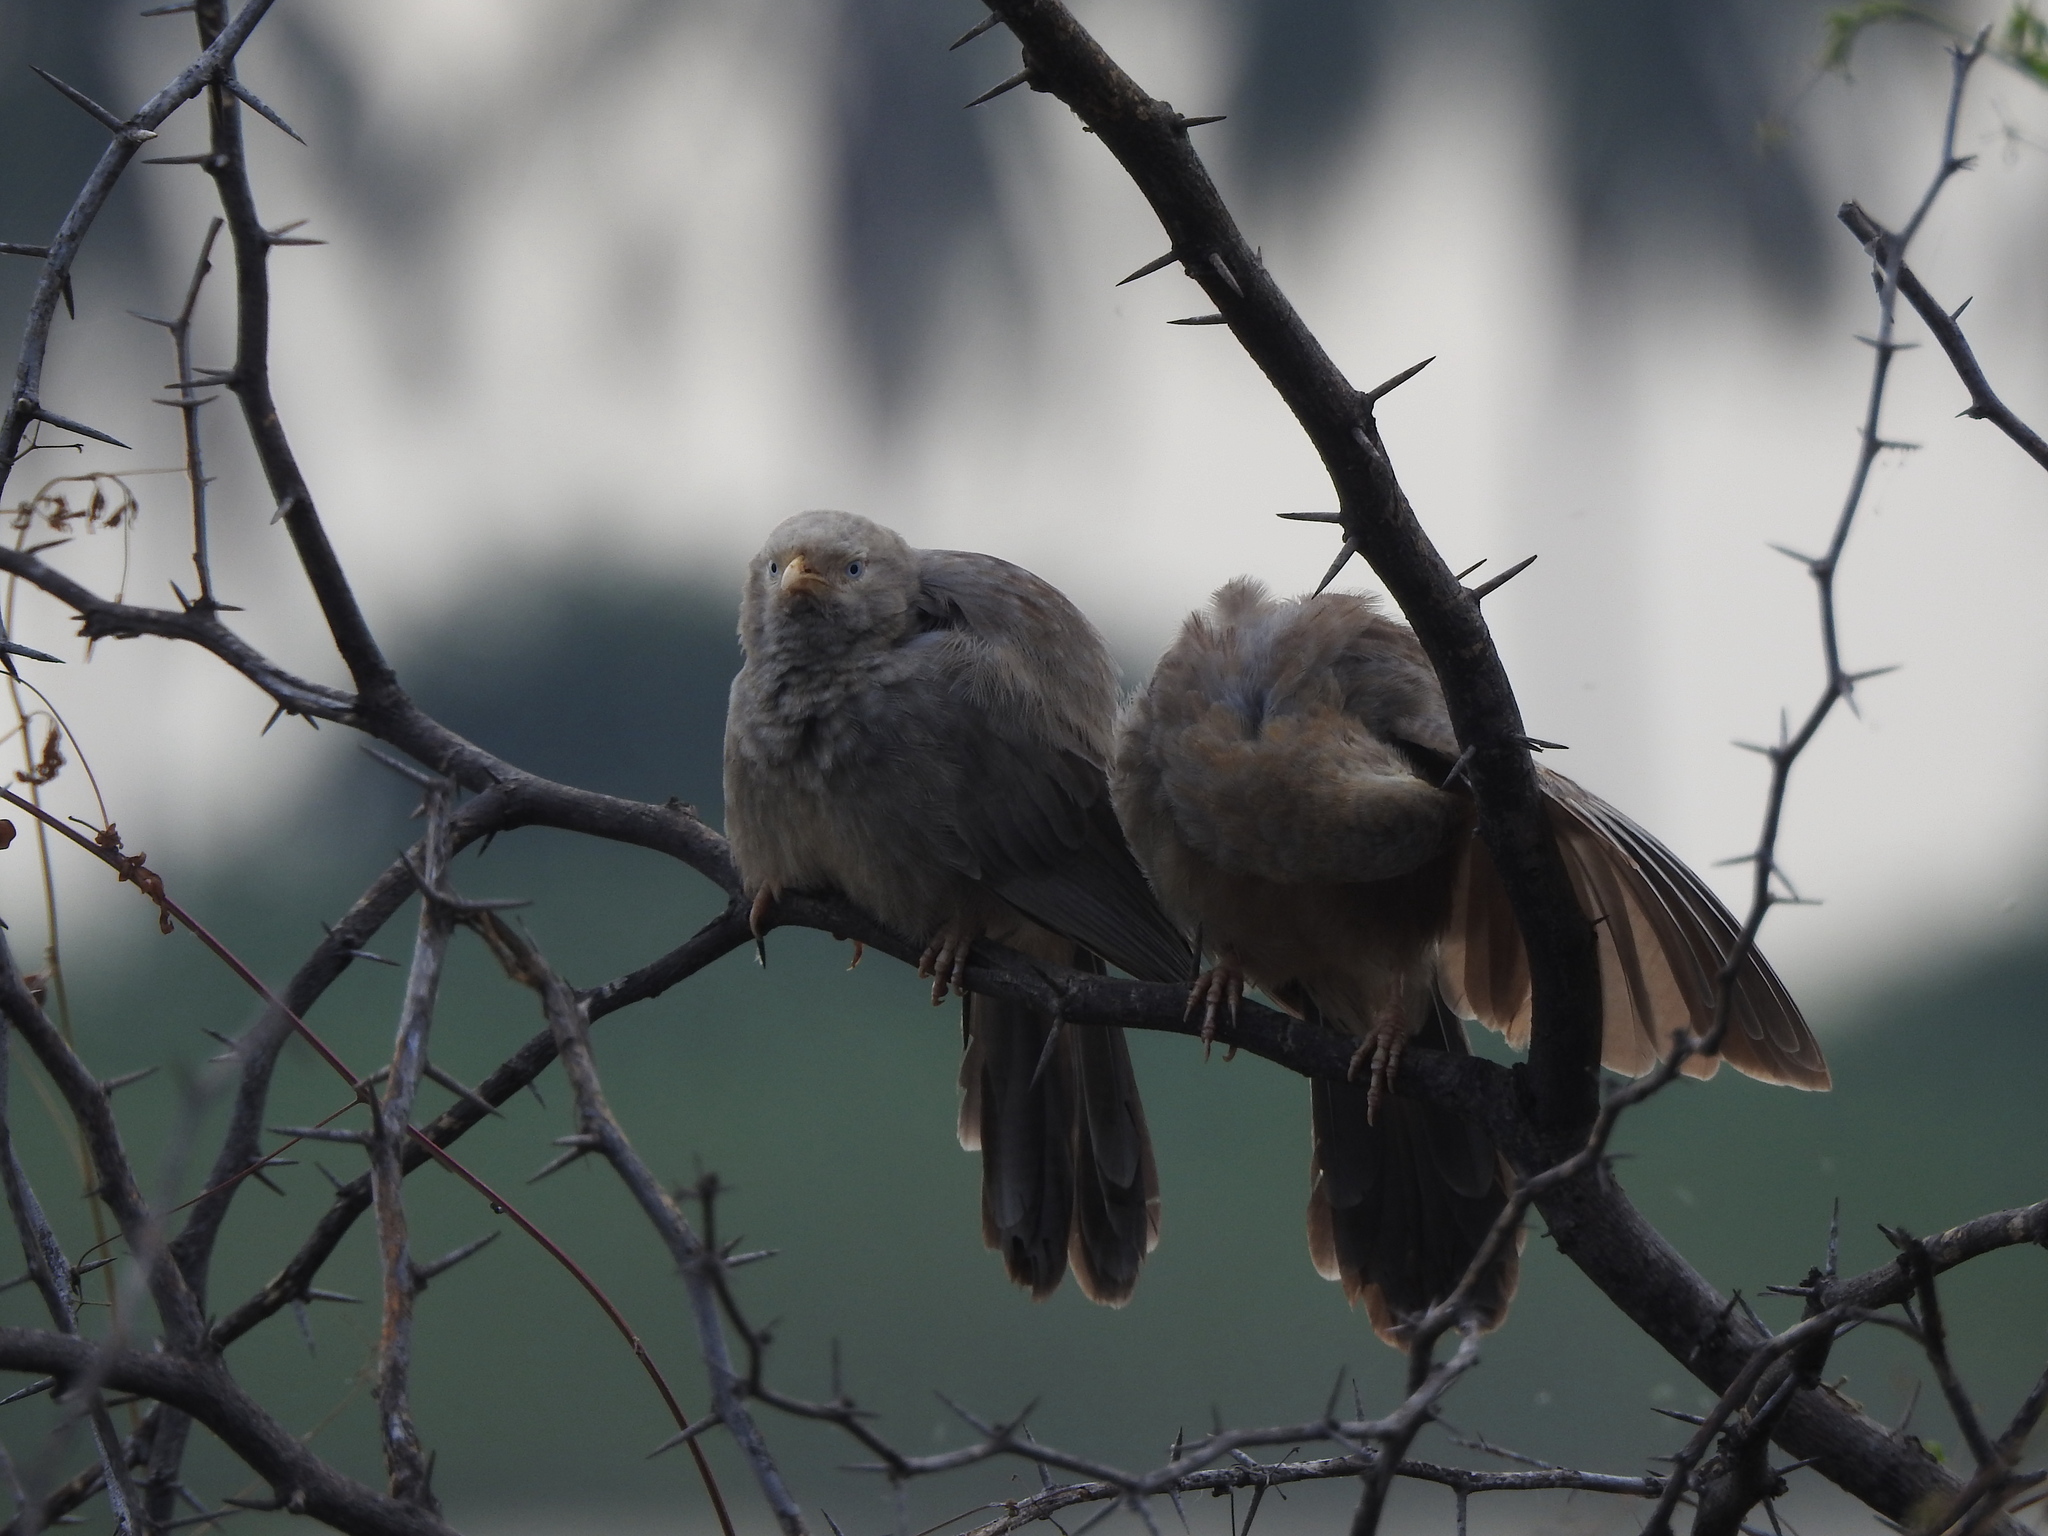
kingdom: Animalia
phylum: Chordata
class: Aves
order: Passeriformes
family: Leiothrichidae
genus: Turdoides
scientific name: Turdoides affinis
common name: Yellow-billed babbler
